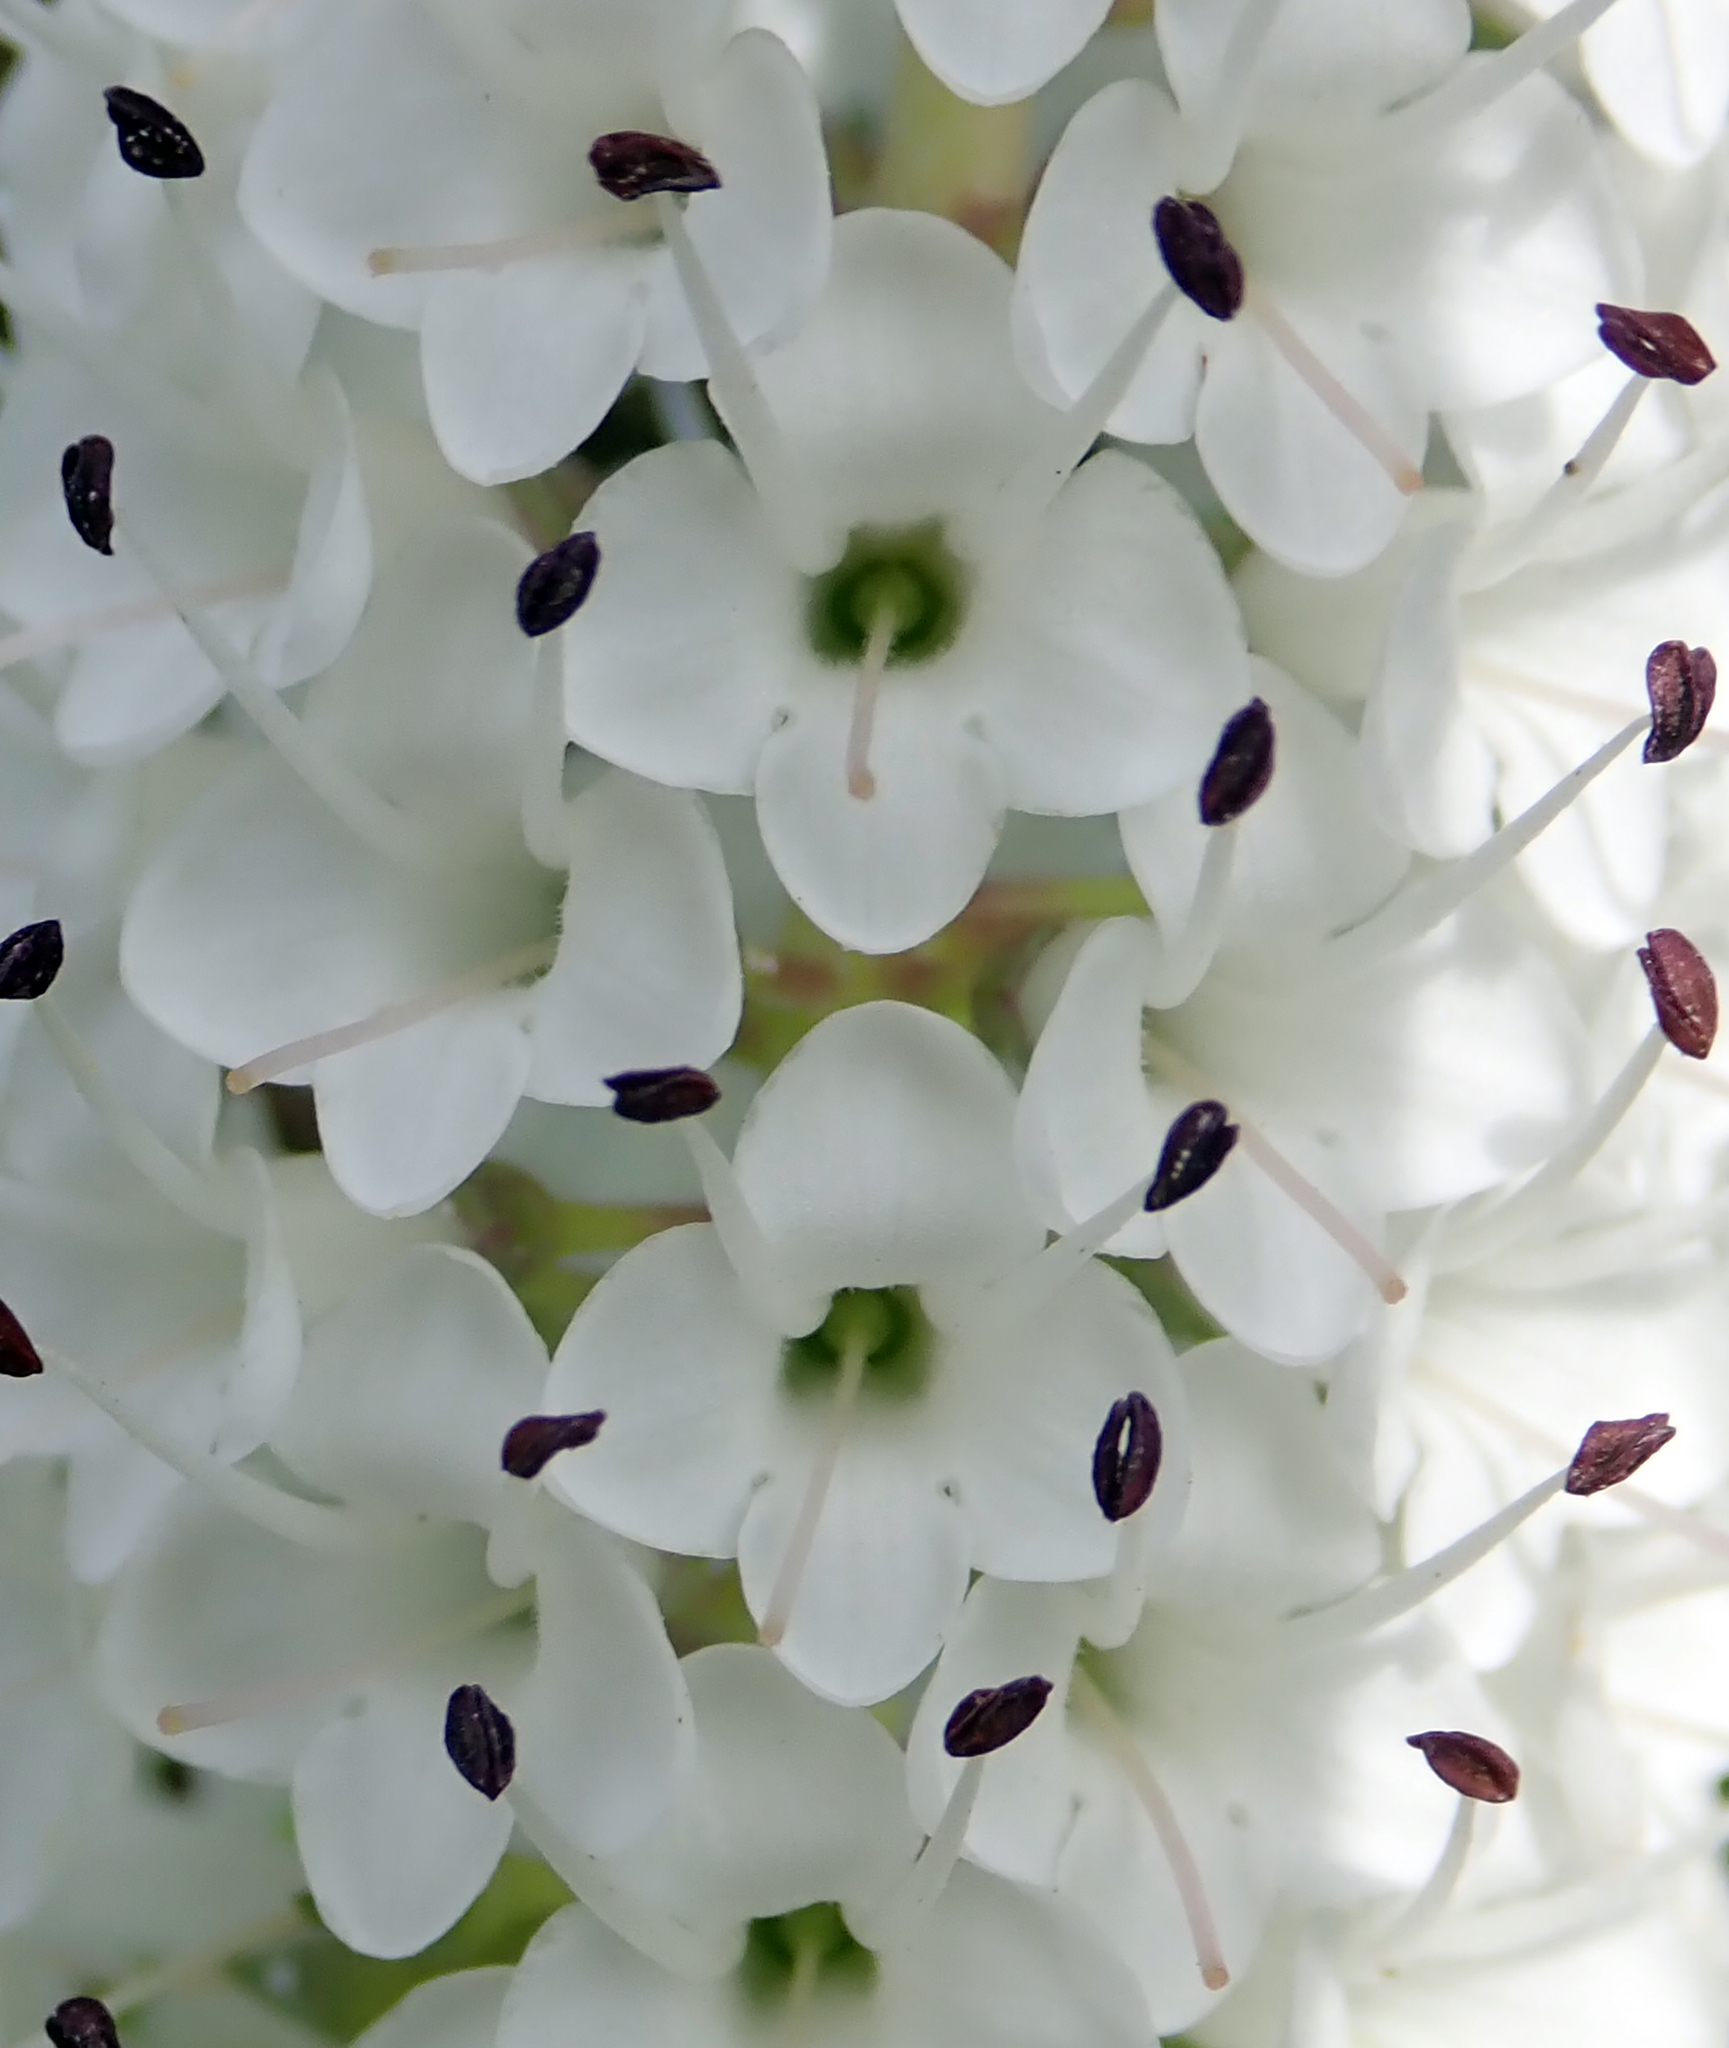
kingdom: Plantae
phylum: Tracheophyta
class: Magnoliopsida
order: Lamiales
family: Plantaginaceae
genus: Veronica
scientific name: Veronica dieffenbachii
